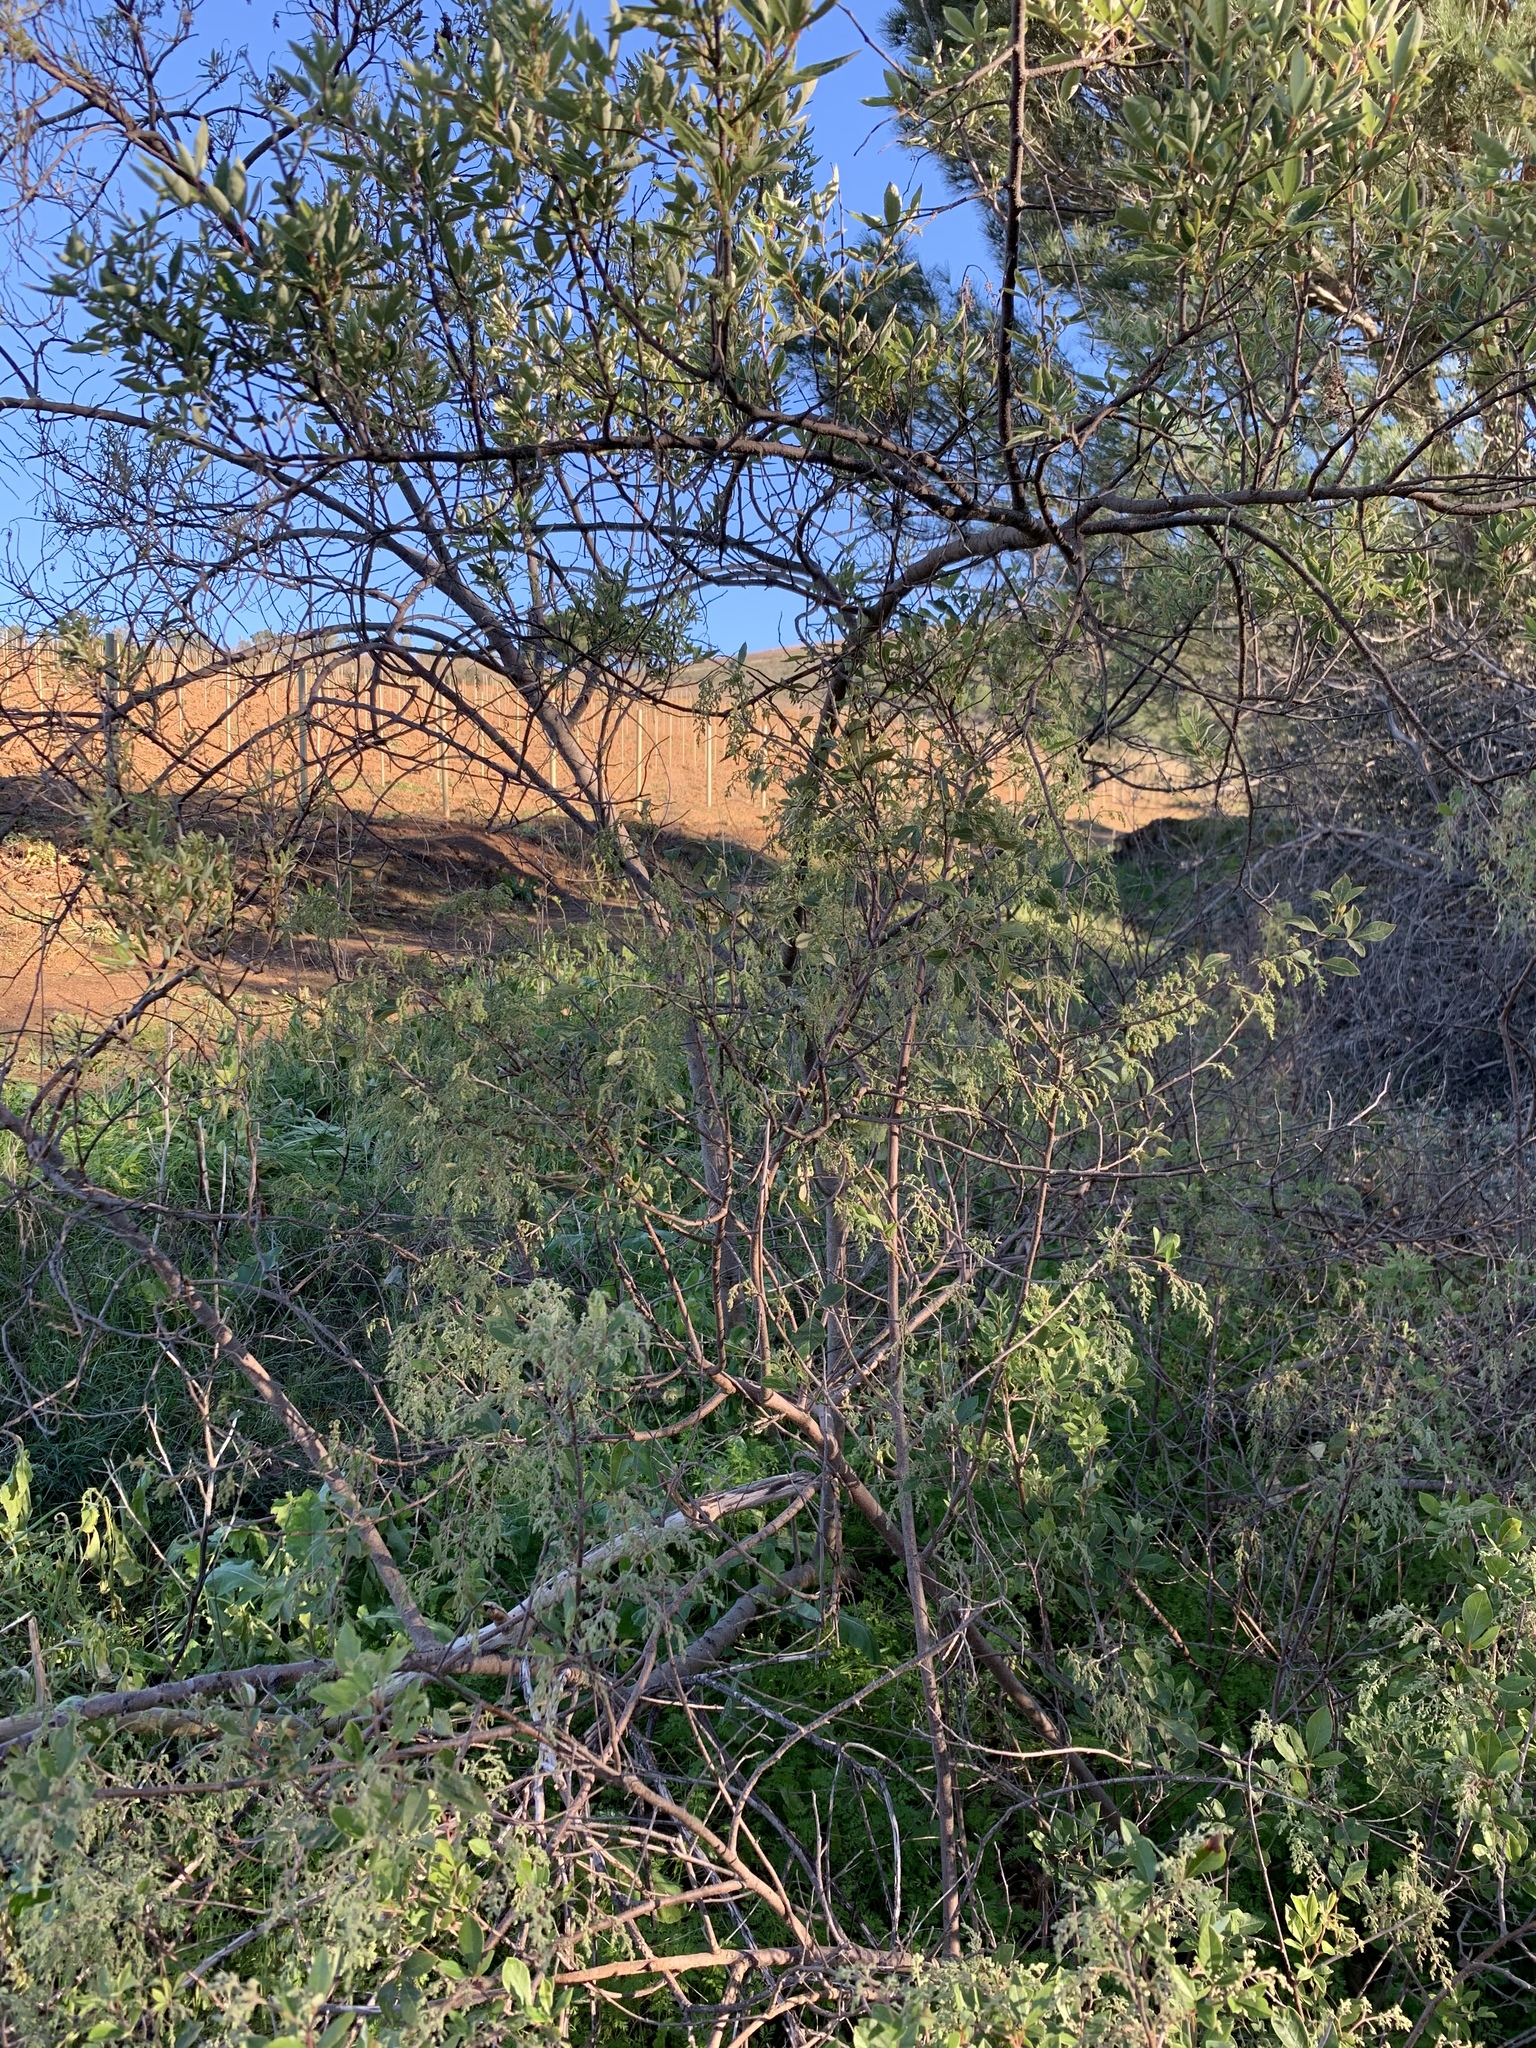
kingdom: Plantae
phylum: Tracheophyta
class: Magnoliopsida
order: Sapindales
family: Anacardiaceae
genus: Searsia
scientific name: Searsia tomentosa
